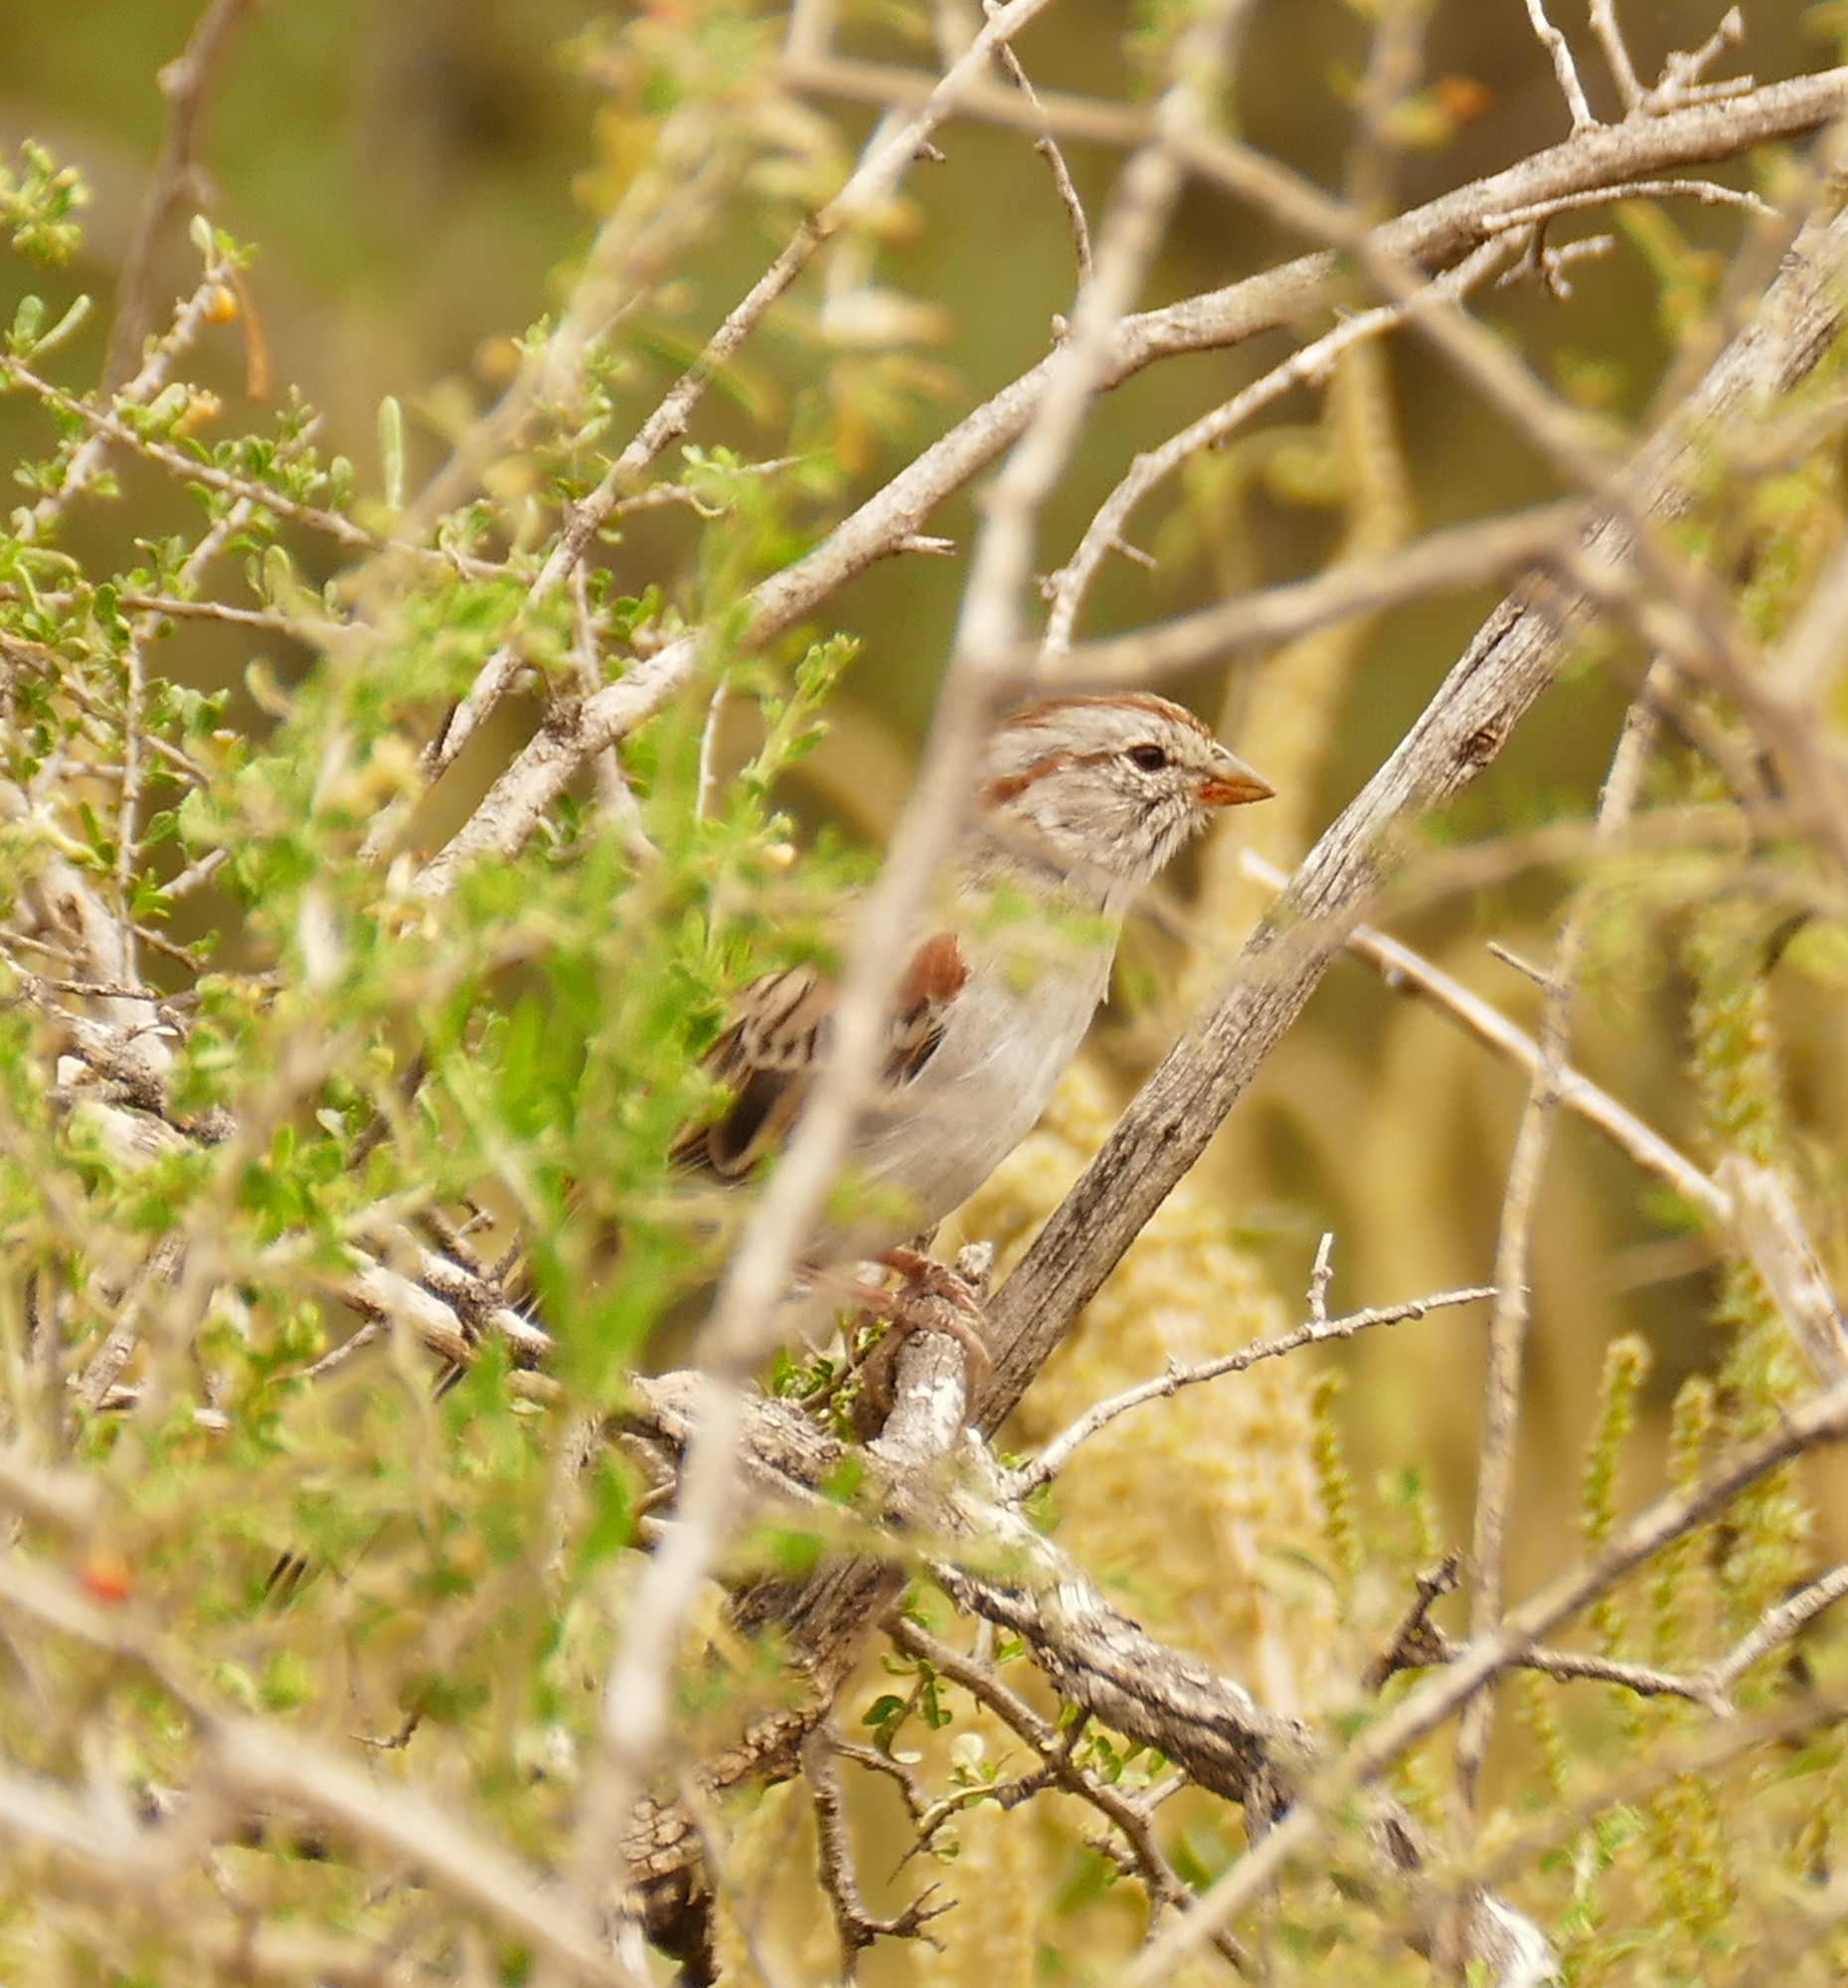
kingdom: Animalia
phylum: Chordata
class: Aves
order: Passeriformes
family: Passerellidae
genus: Peucaea
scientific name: Peucaea carpalis
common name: Rufous-winged sparrow
